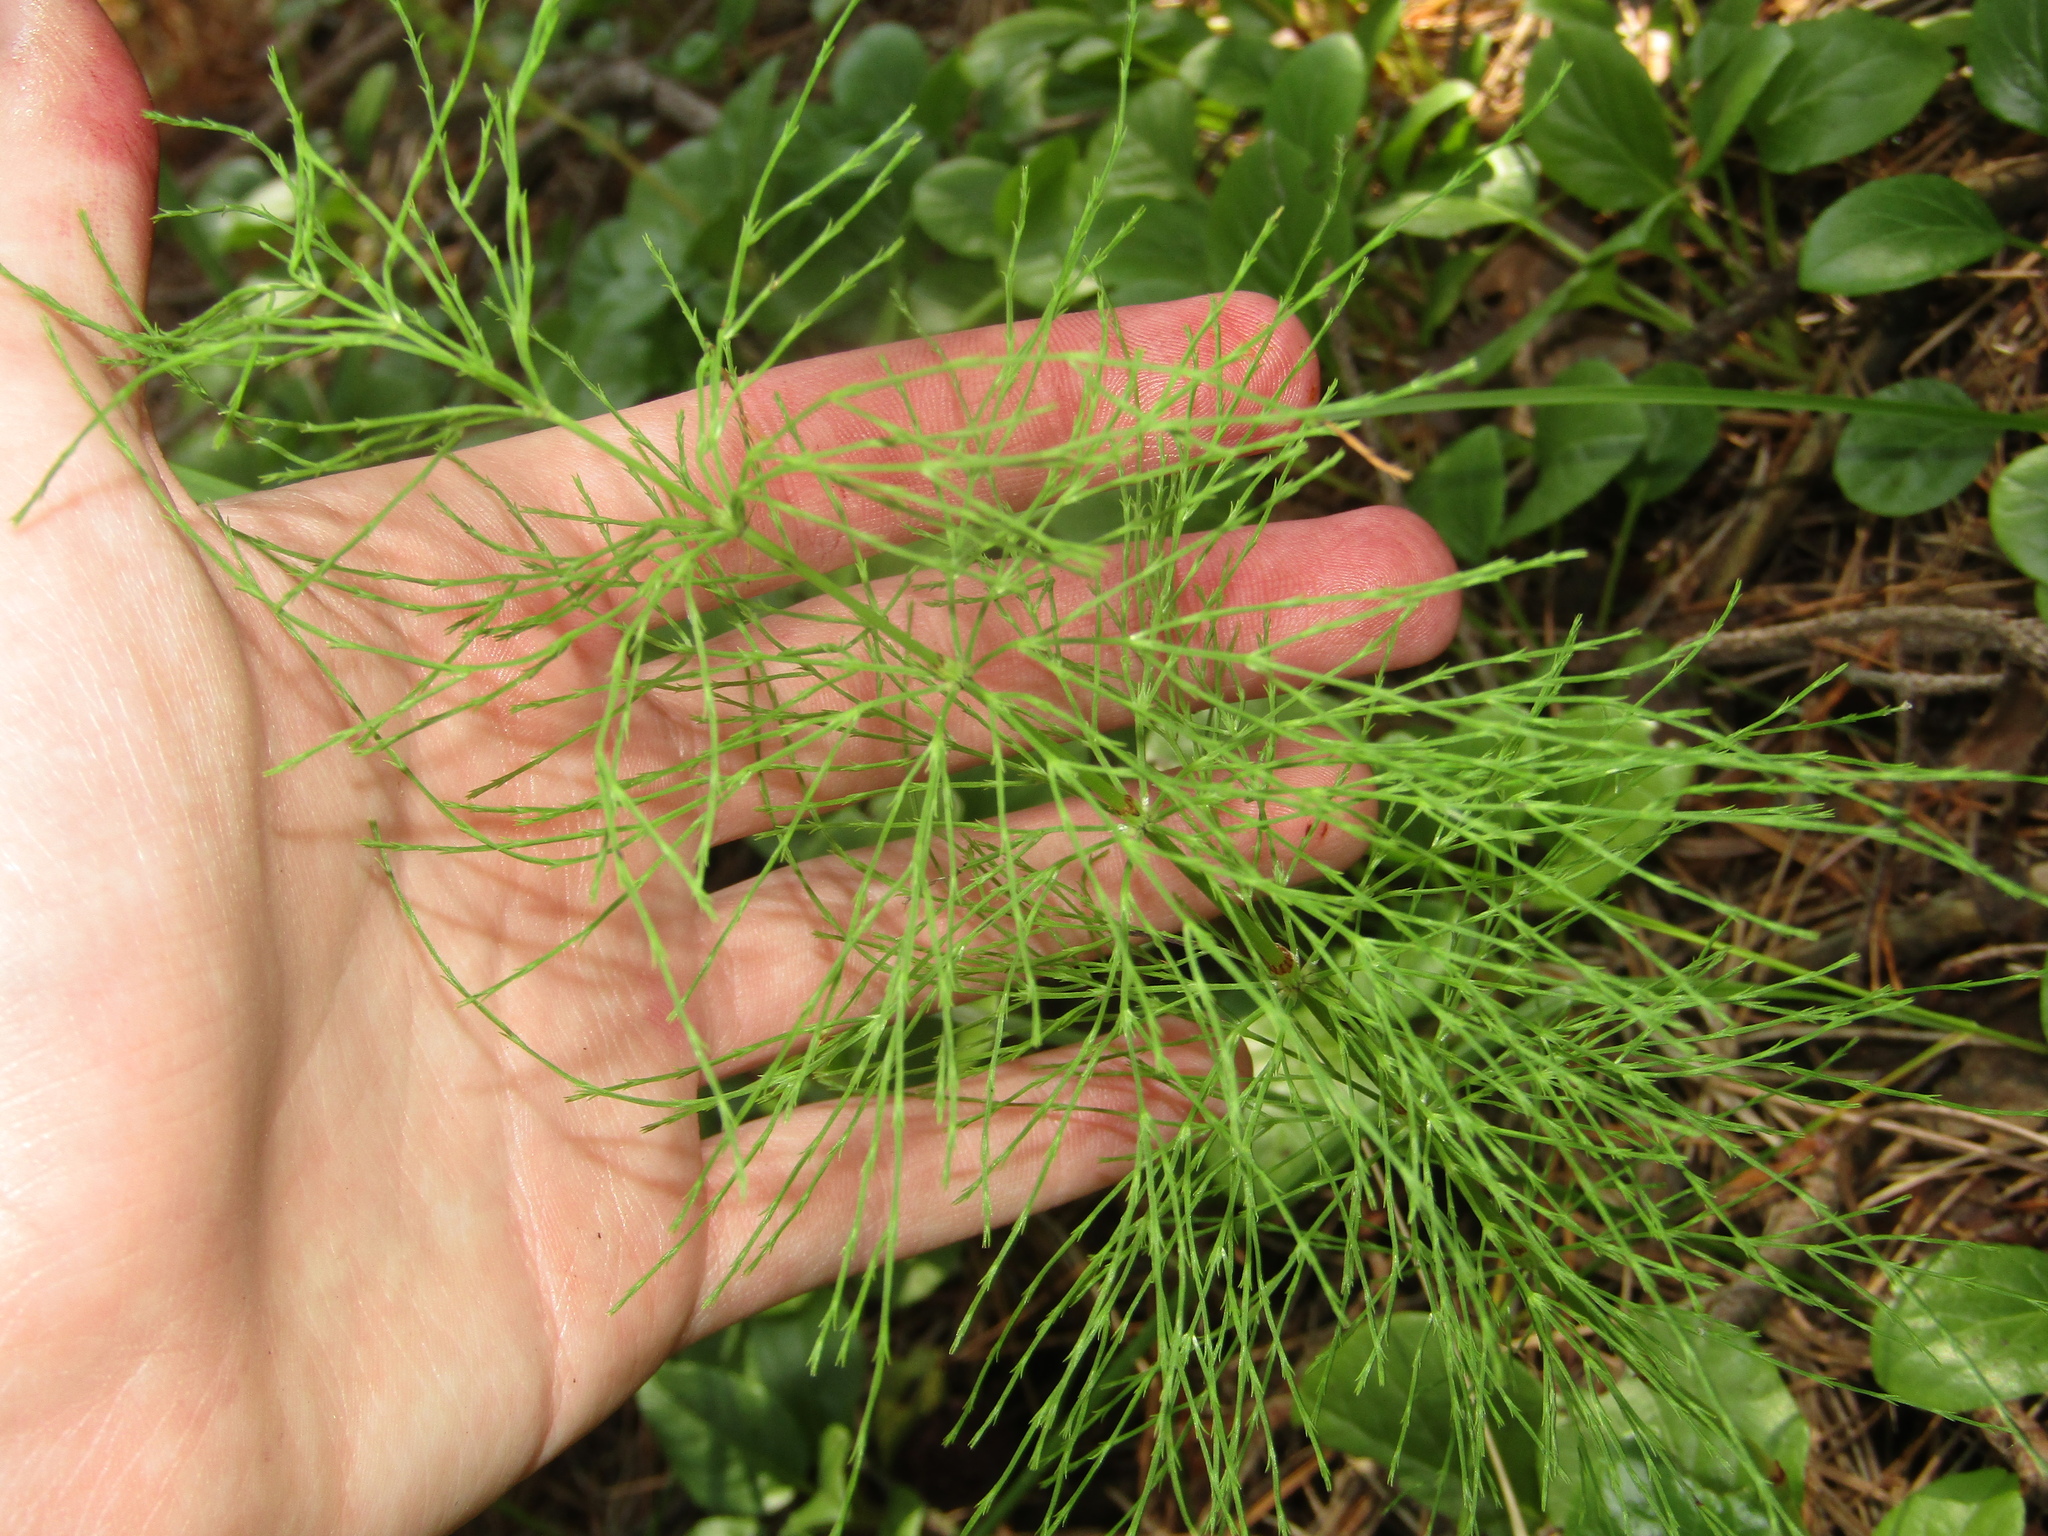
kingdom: Plantae
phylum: Tracheophyta
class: Polypodiopsida
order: Equisetales
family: Equisetaceae
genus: Equisetum
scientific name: Equisetum sylvaticum
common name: Wood horsetail
